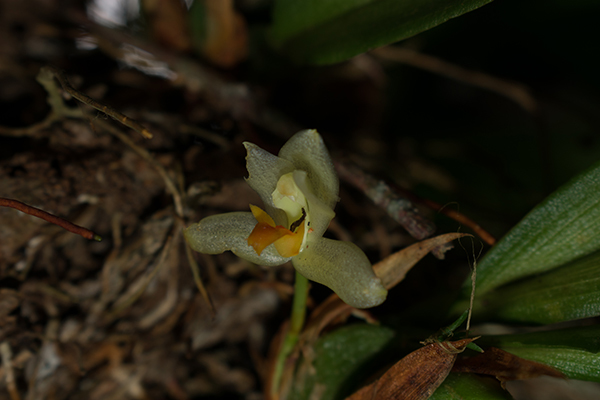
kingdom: Plantae
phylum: Tracheophyta
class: Liliopsida
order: Asparagales
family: Orchidaceae
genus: Maxillaria
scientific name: Maxillaria hedwigiae
